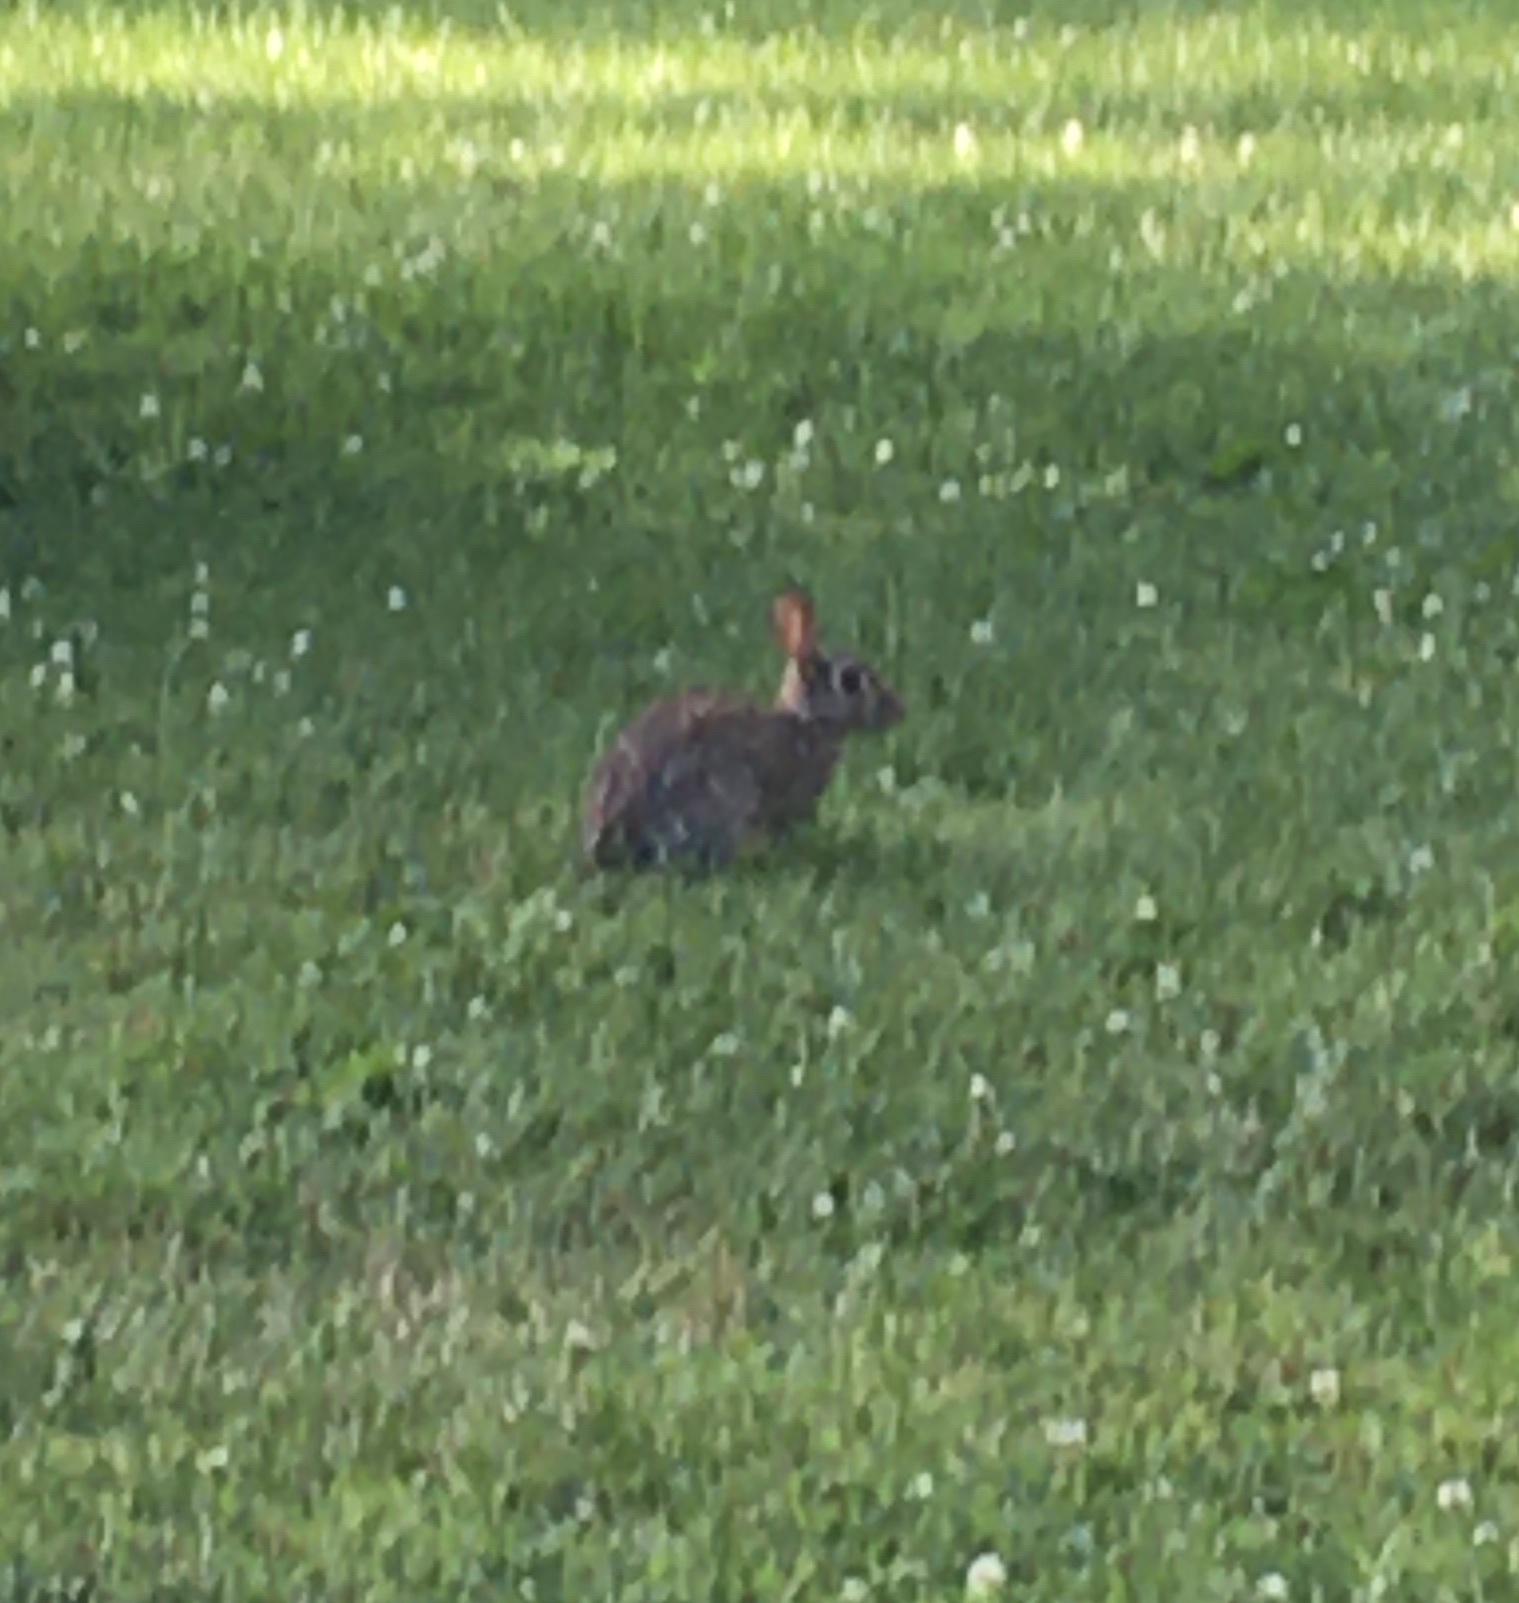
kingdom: Animalia
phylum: Chordata
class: Mammalia
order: Lagomorpha
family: Leporidae
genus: Sylvilagus
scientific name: Sylvilagus floridanus
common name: Eastern cottontail
